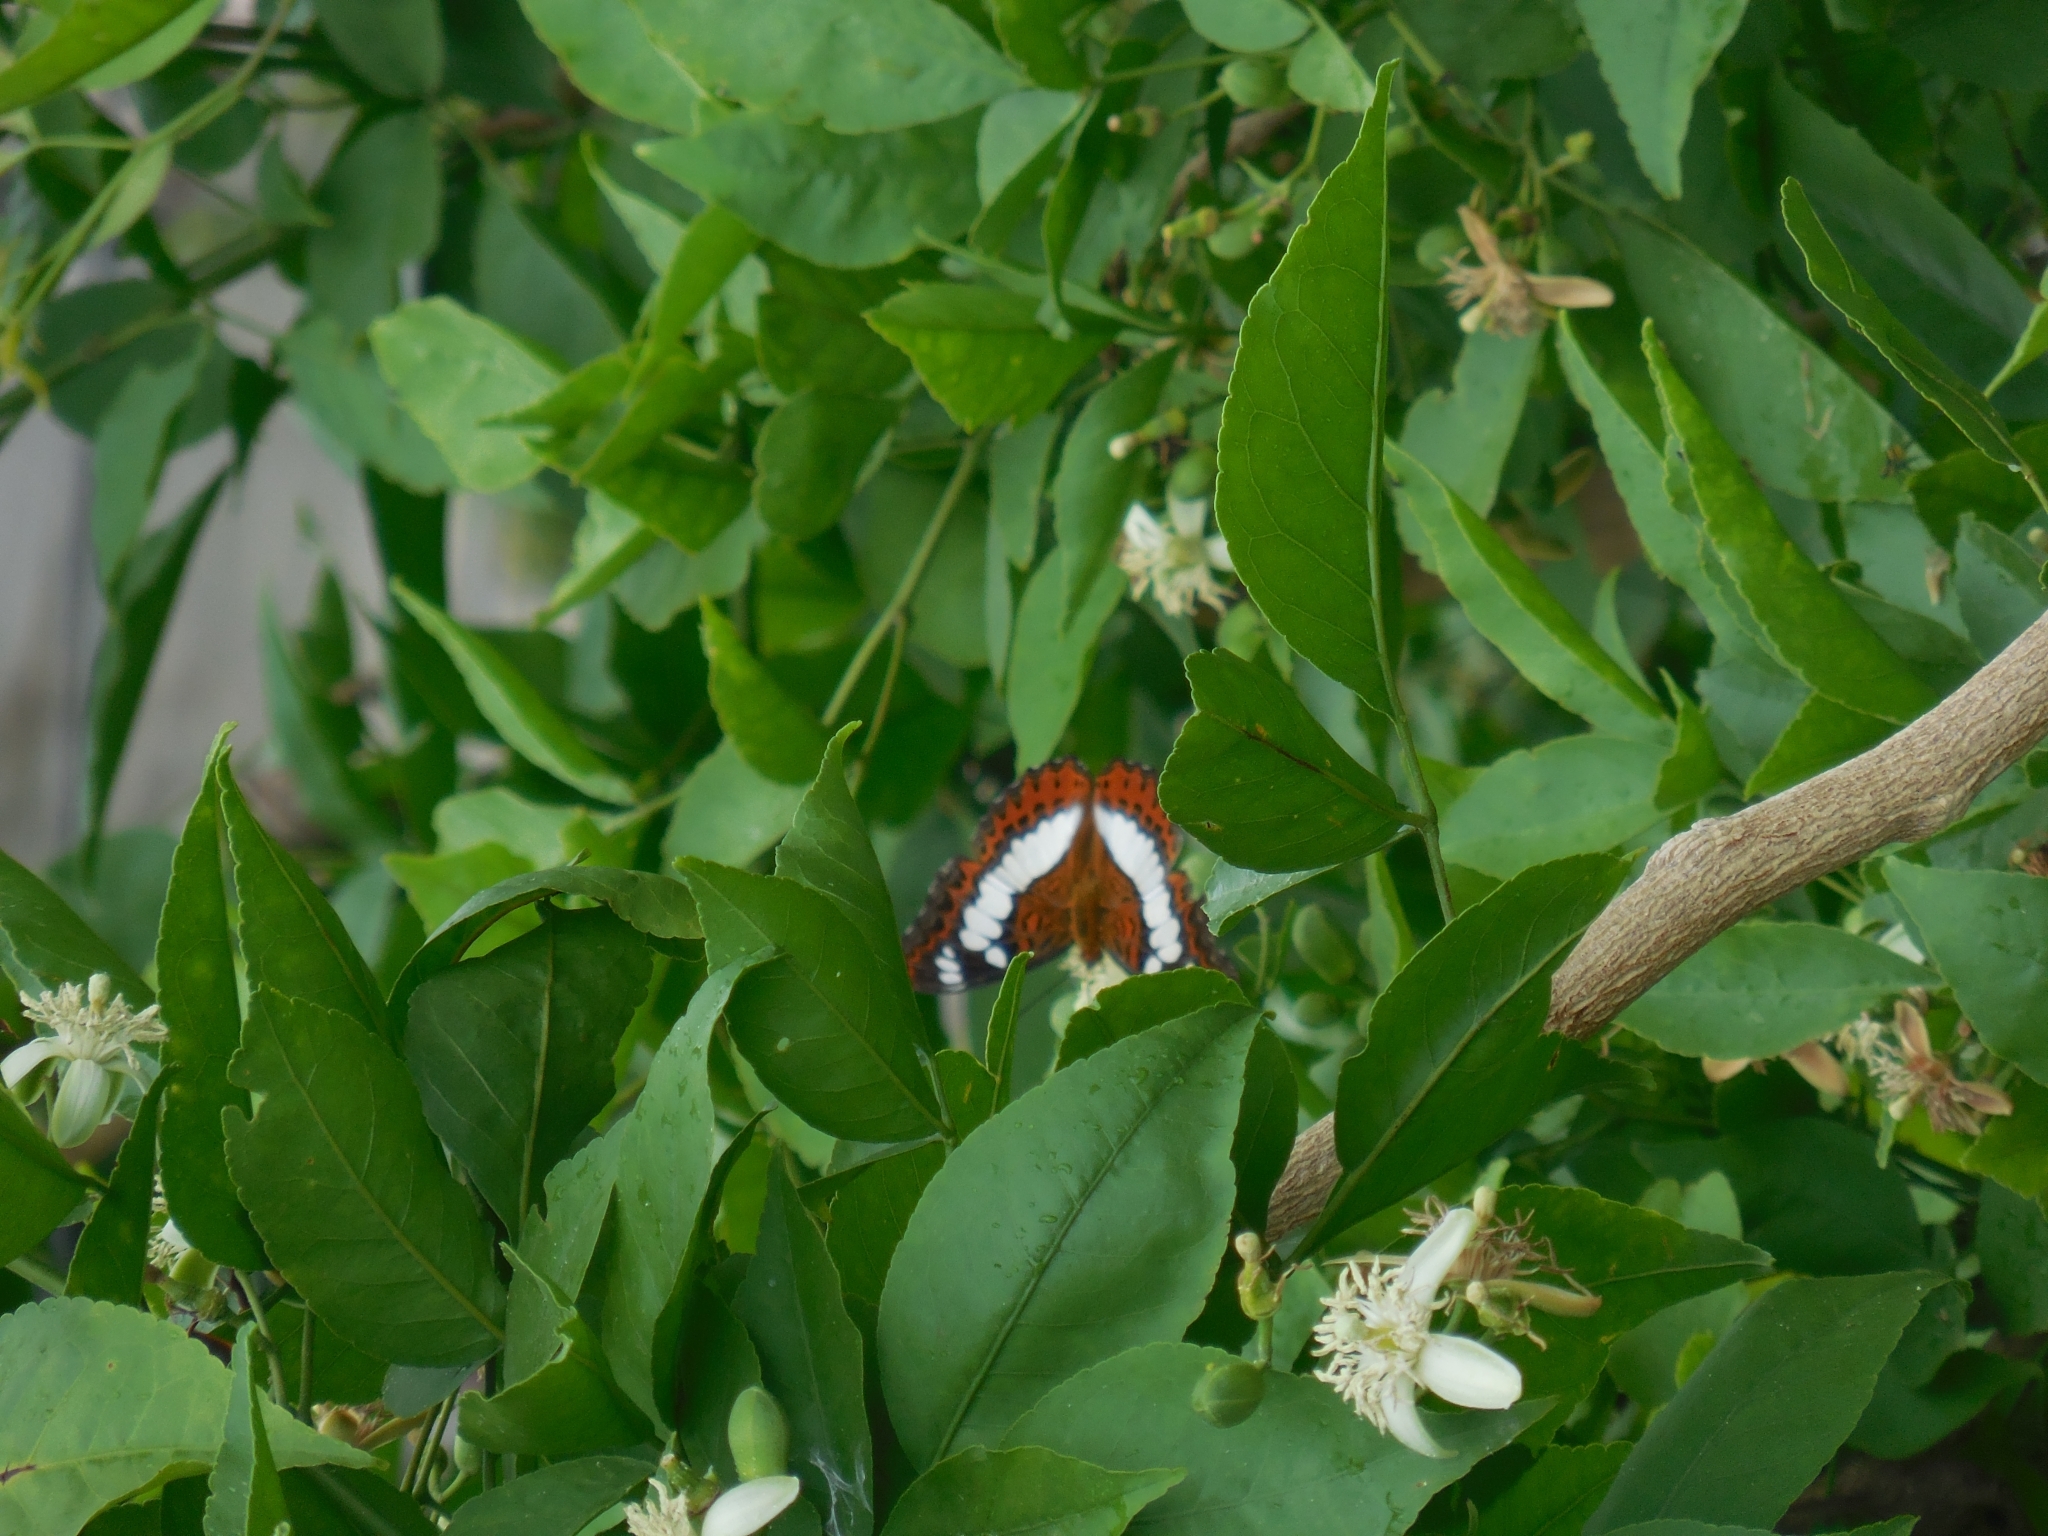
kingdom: Animalia
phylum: Arthropoda
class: Insecta
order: Lepidoptera
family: Nymphalidae
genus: Limenitis
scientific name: Limenitis Moduza procris
